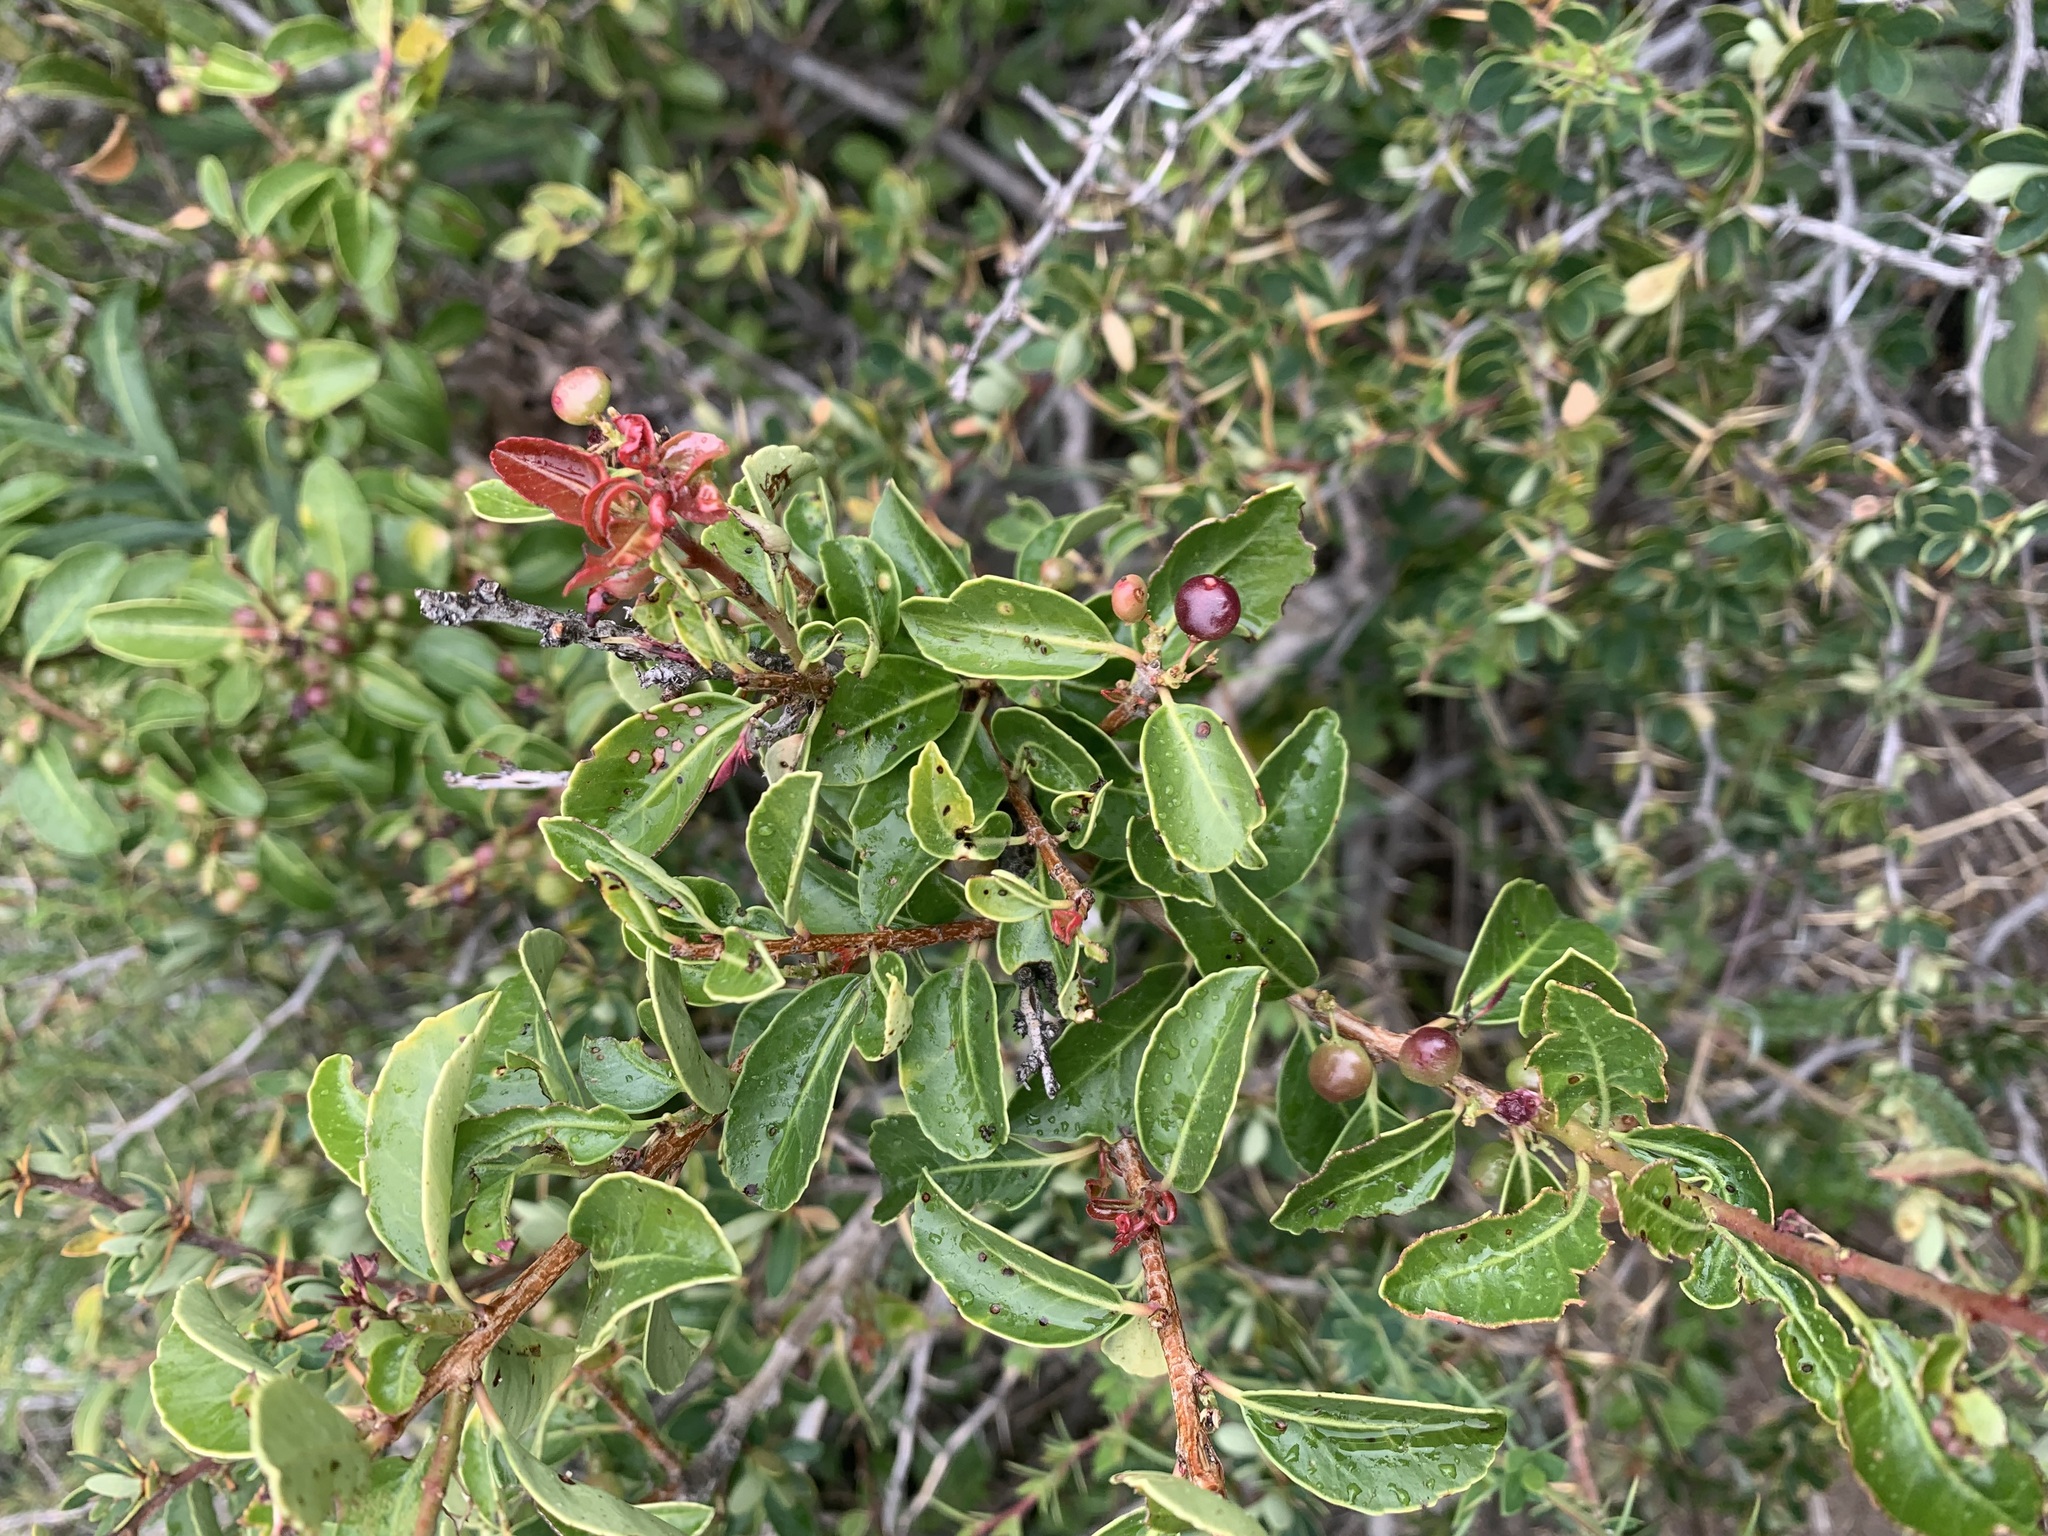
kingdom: Plantae
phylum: Tracheophyta
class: Magnoliopsida
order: Sapindales
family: Anacardiaceae
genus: Schinus
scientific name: Schinus patagonica
